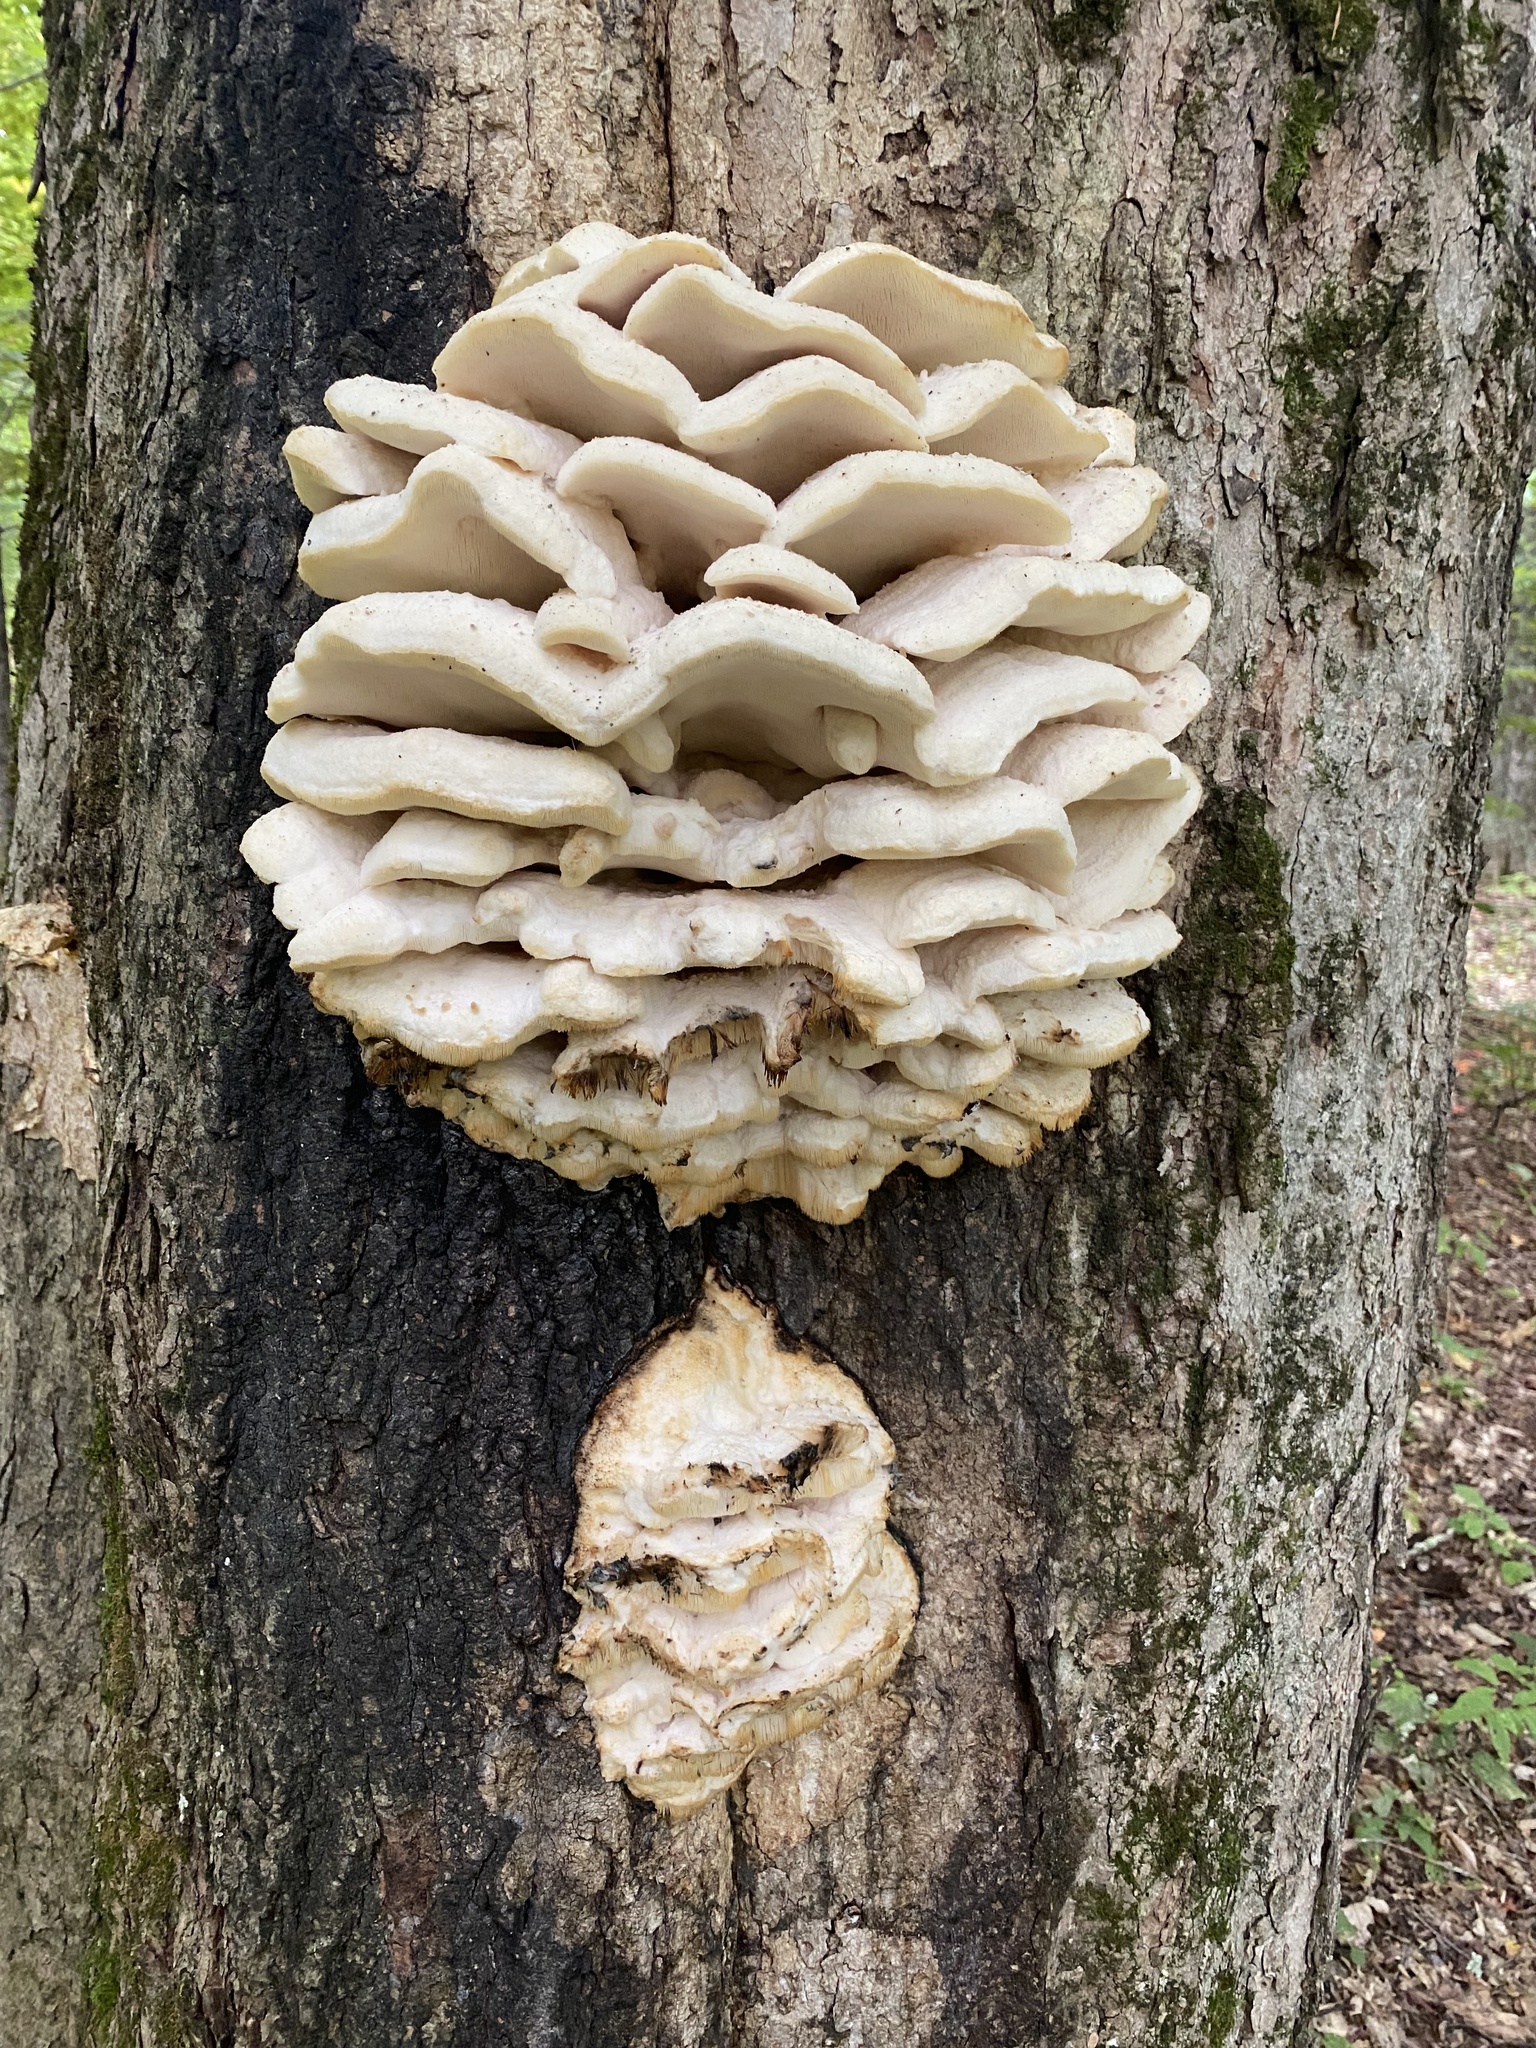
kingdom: Fungi
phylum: Basidiomycota
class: Agaricomycetes
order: Polyporales
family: Meruliaceae
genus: Climacodon
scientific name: Climacodon septentrionalis
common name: Northern tooth
